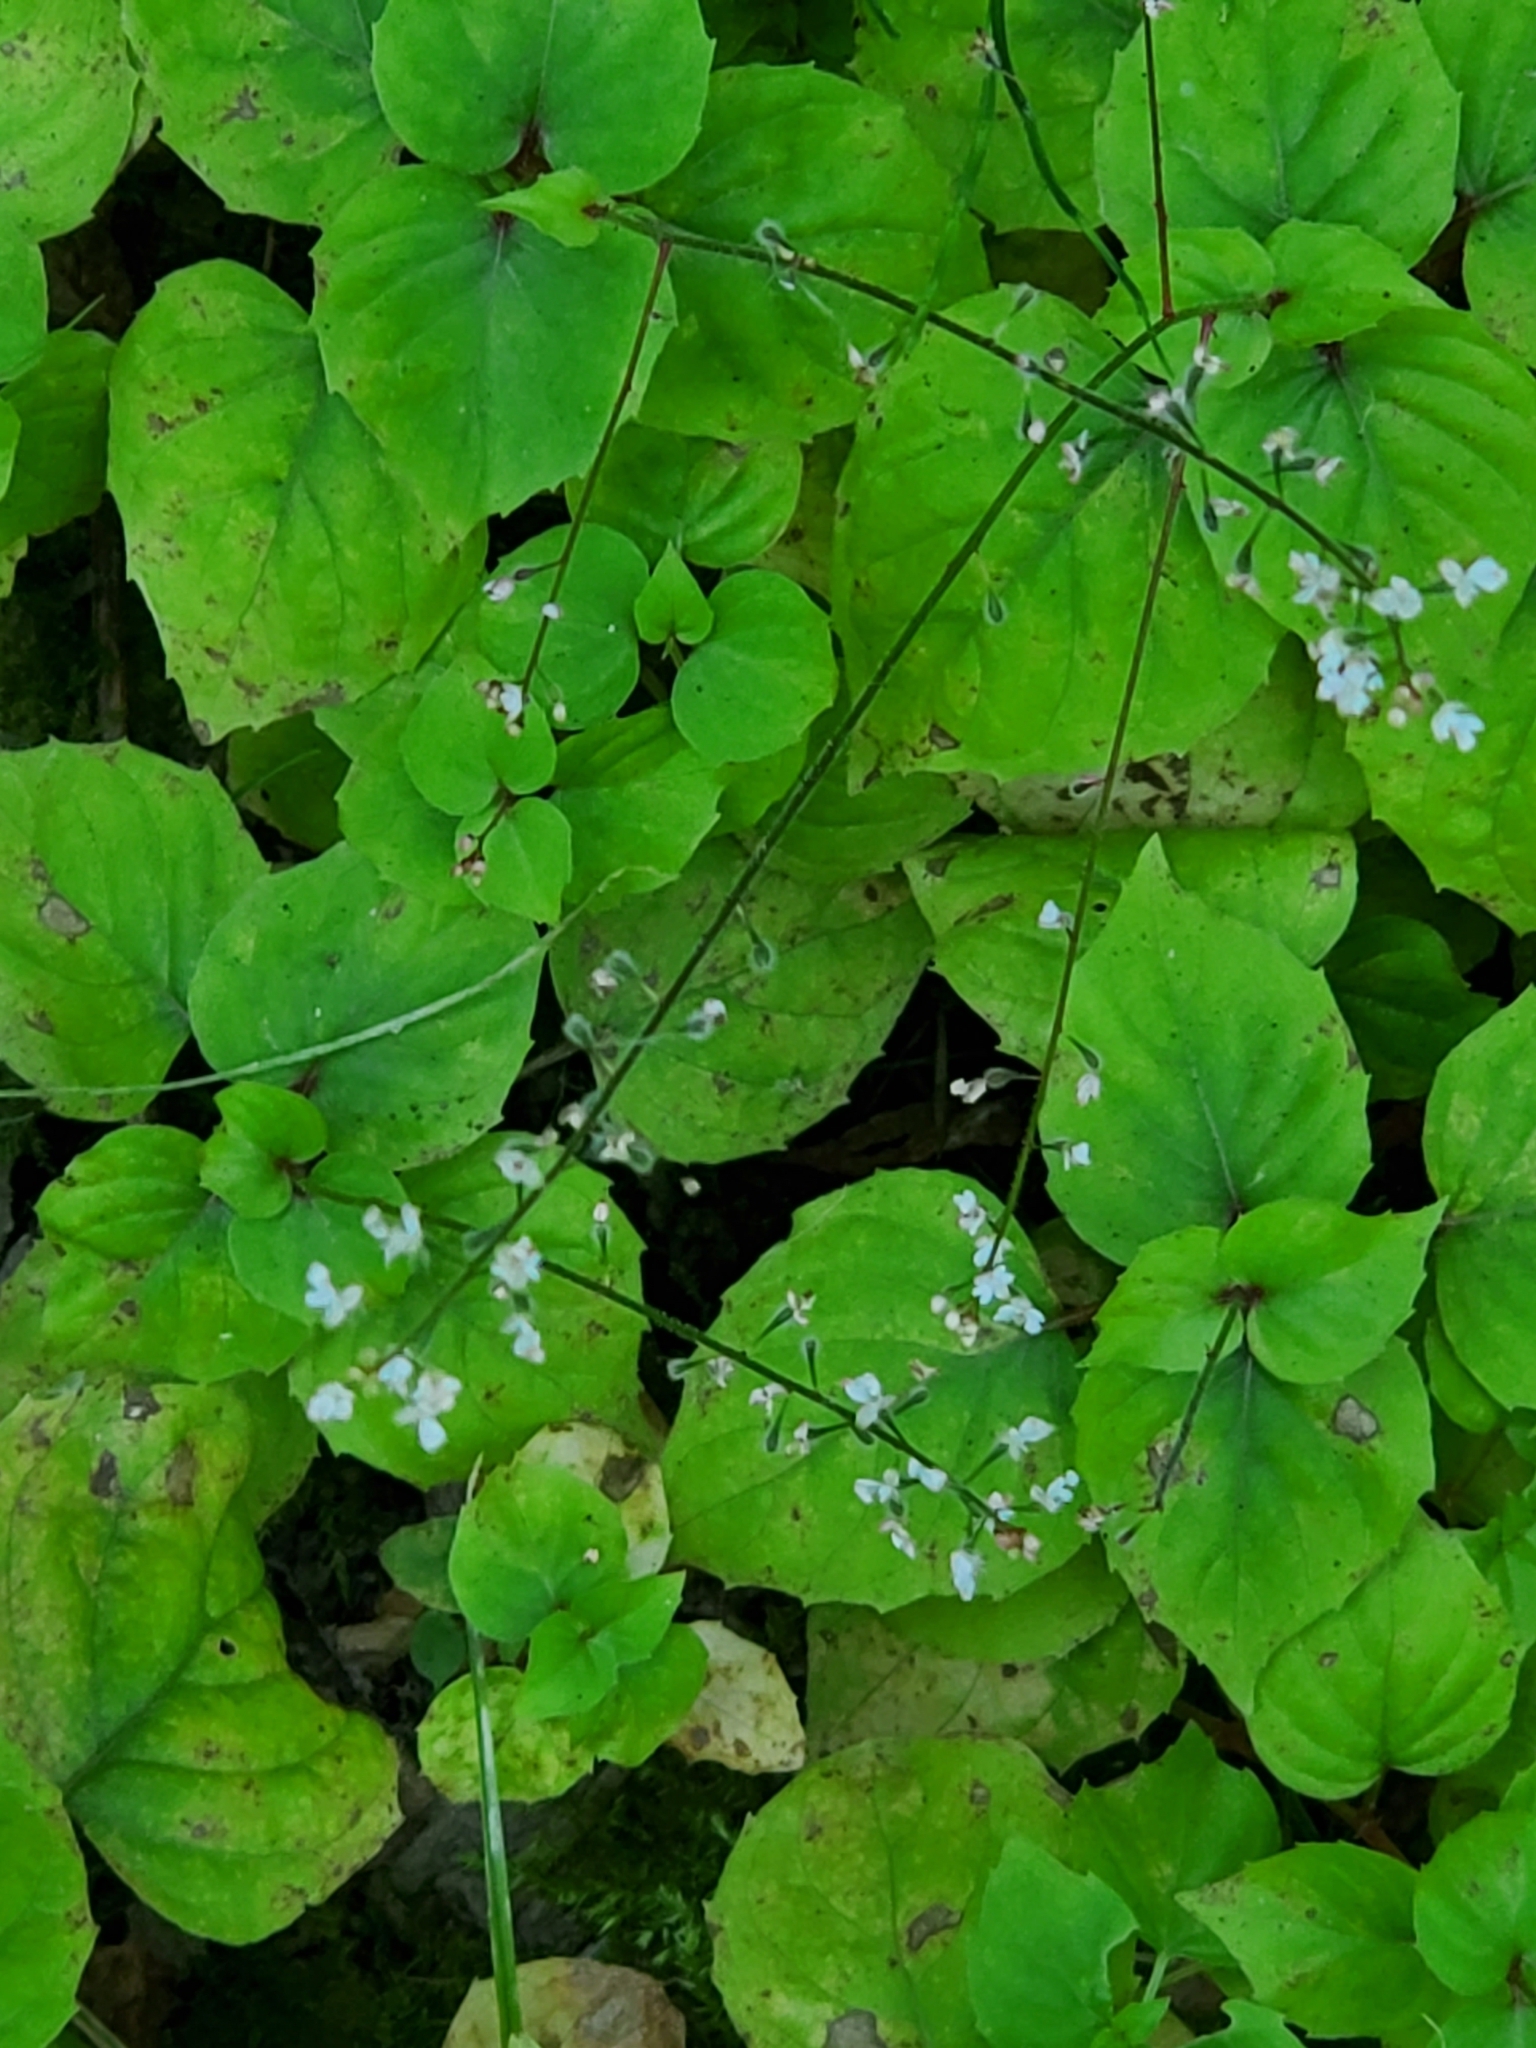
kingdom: Plantae
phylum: Tracheophyta
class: Magnoliopsida
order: Myrtales
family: Onagraceae
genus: Circaea
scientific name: Circaea alpina
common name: Alpine enchanter's-nightshade
